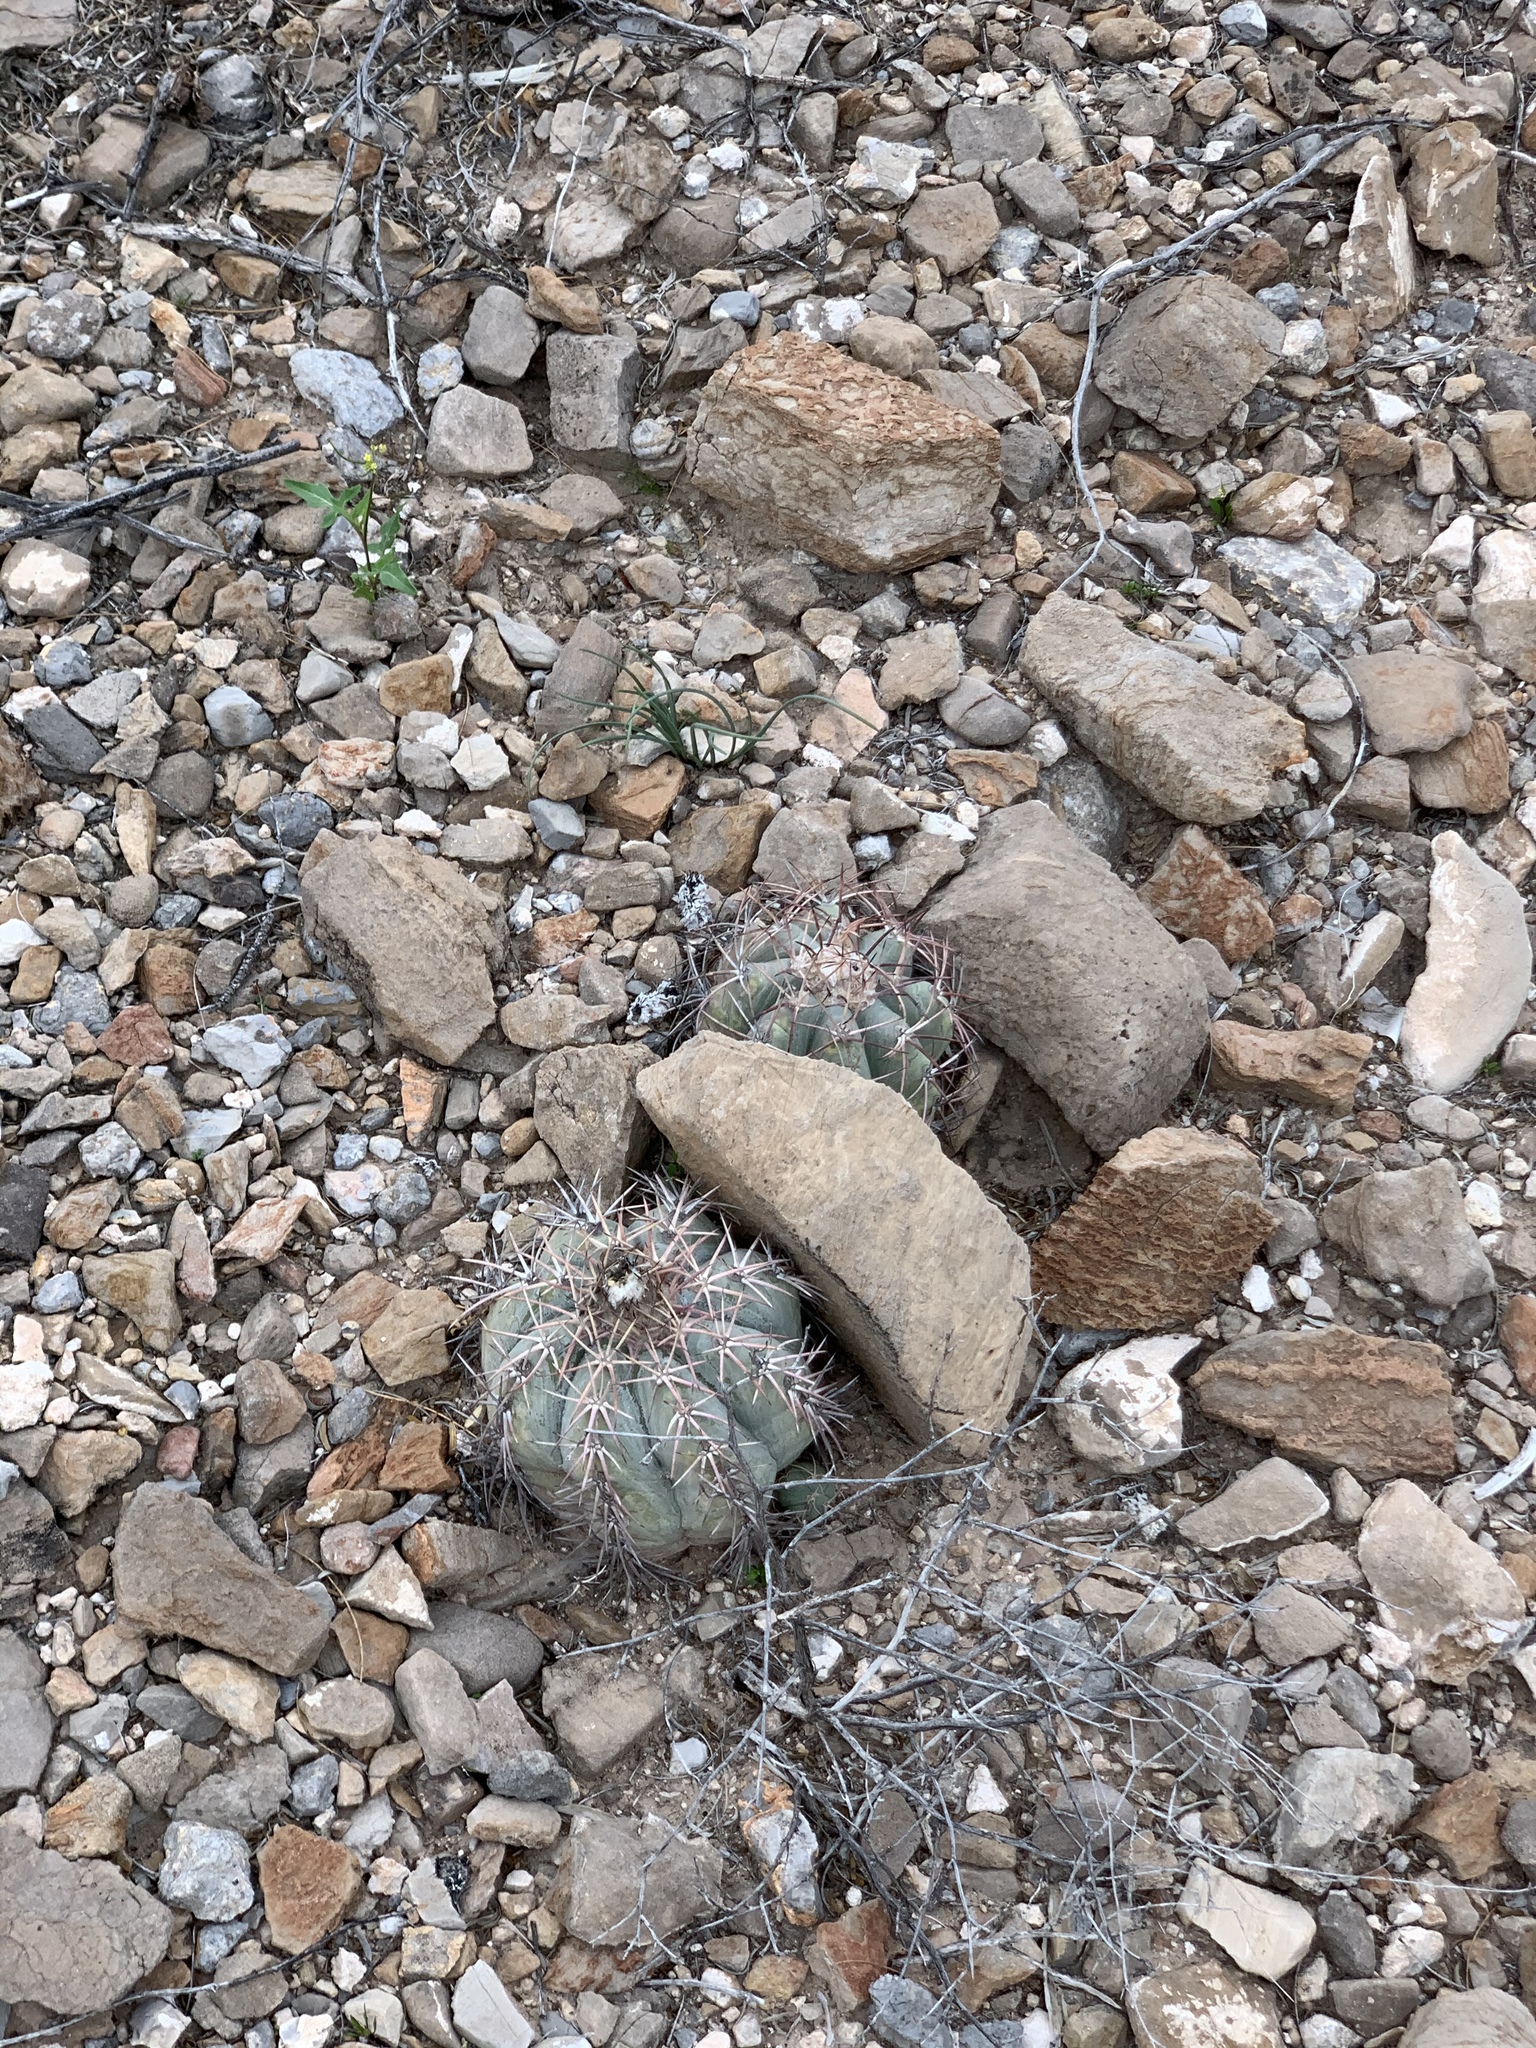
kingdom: Plantae
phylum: Tracheophyta
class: Magnoliopsida
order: Caryophyllales
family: Cactaceae
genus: Echinocactus
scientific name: Echinocactus horizonthalonius
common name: Devilshead
